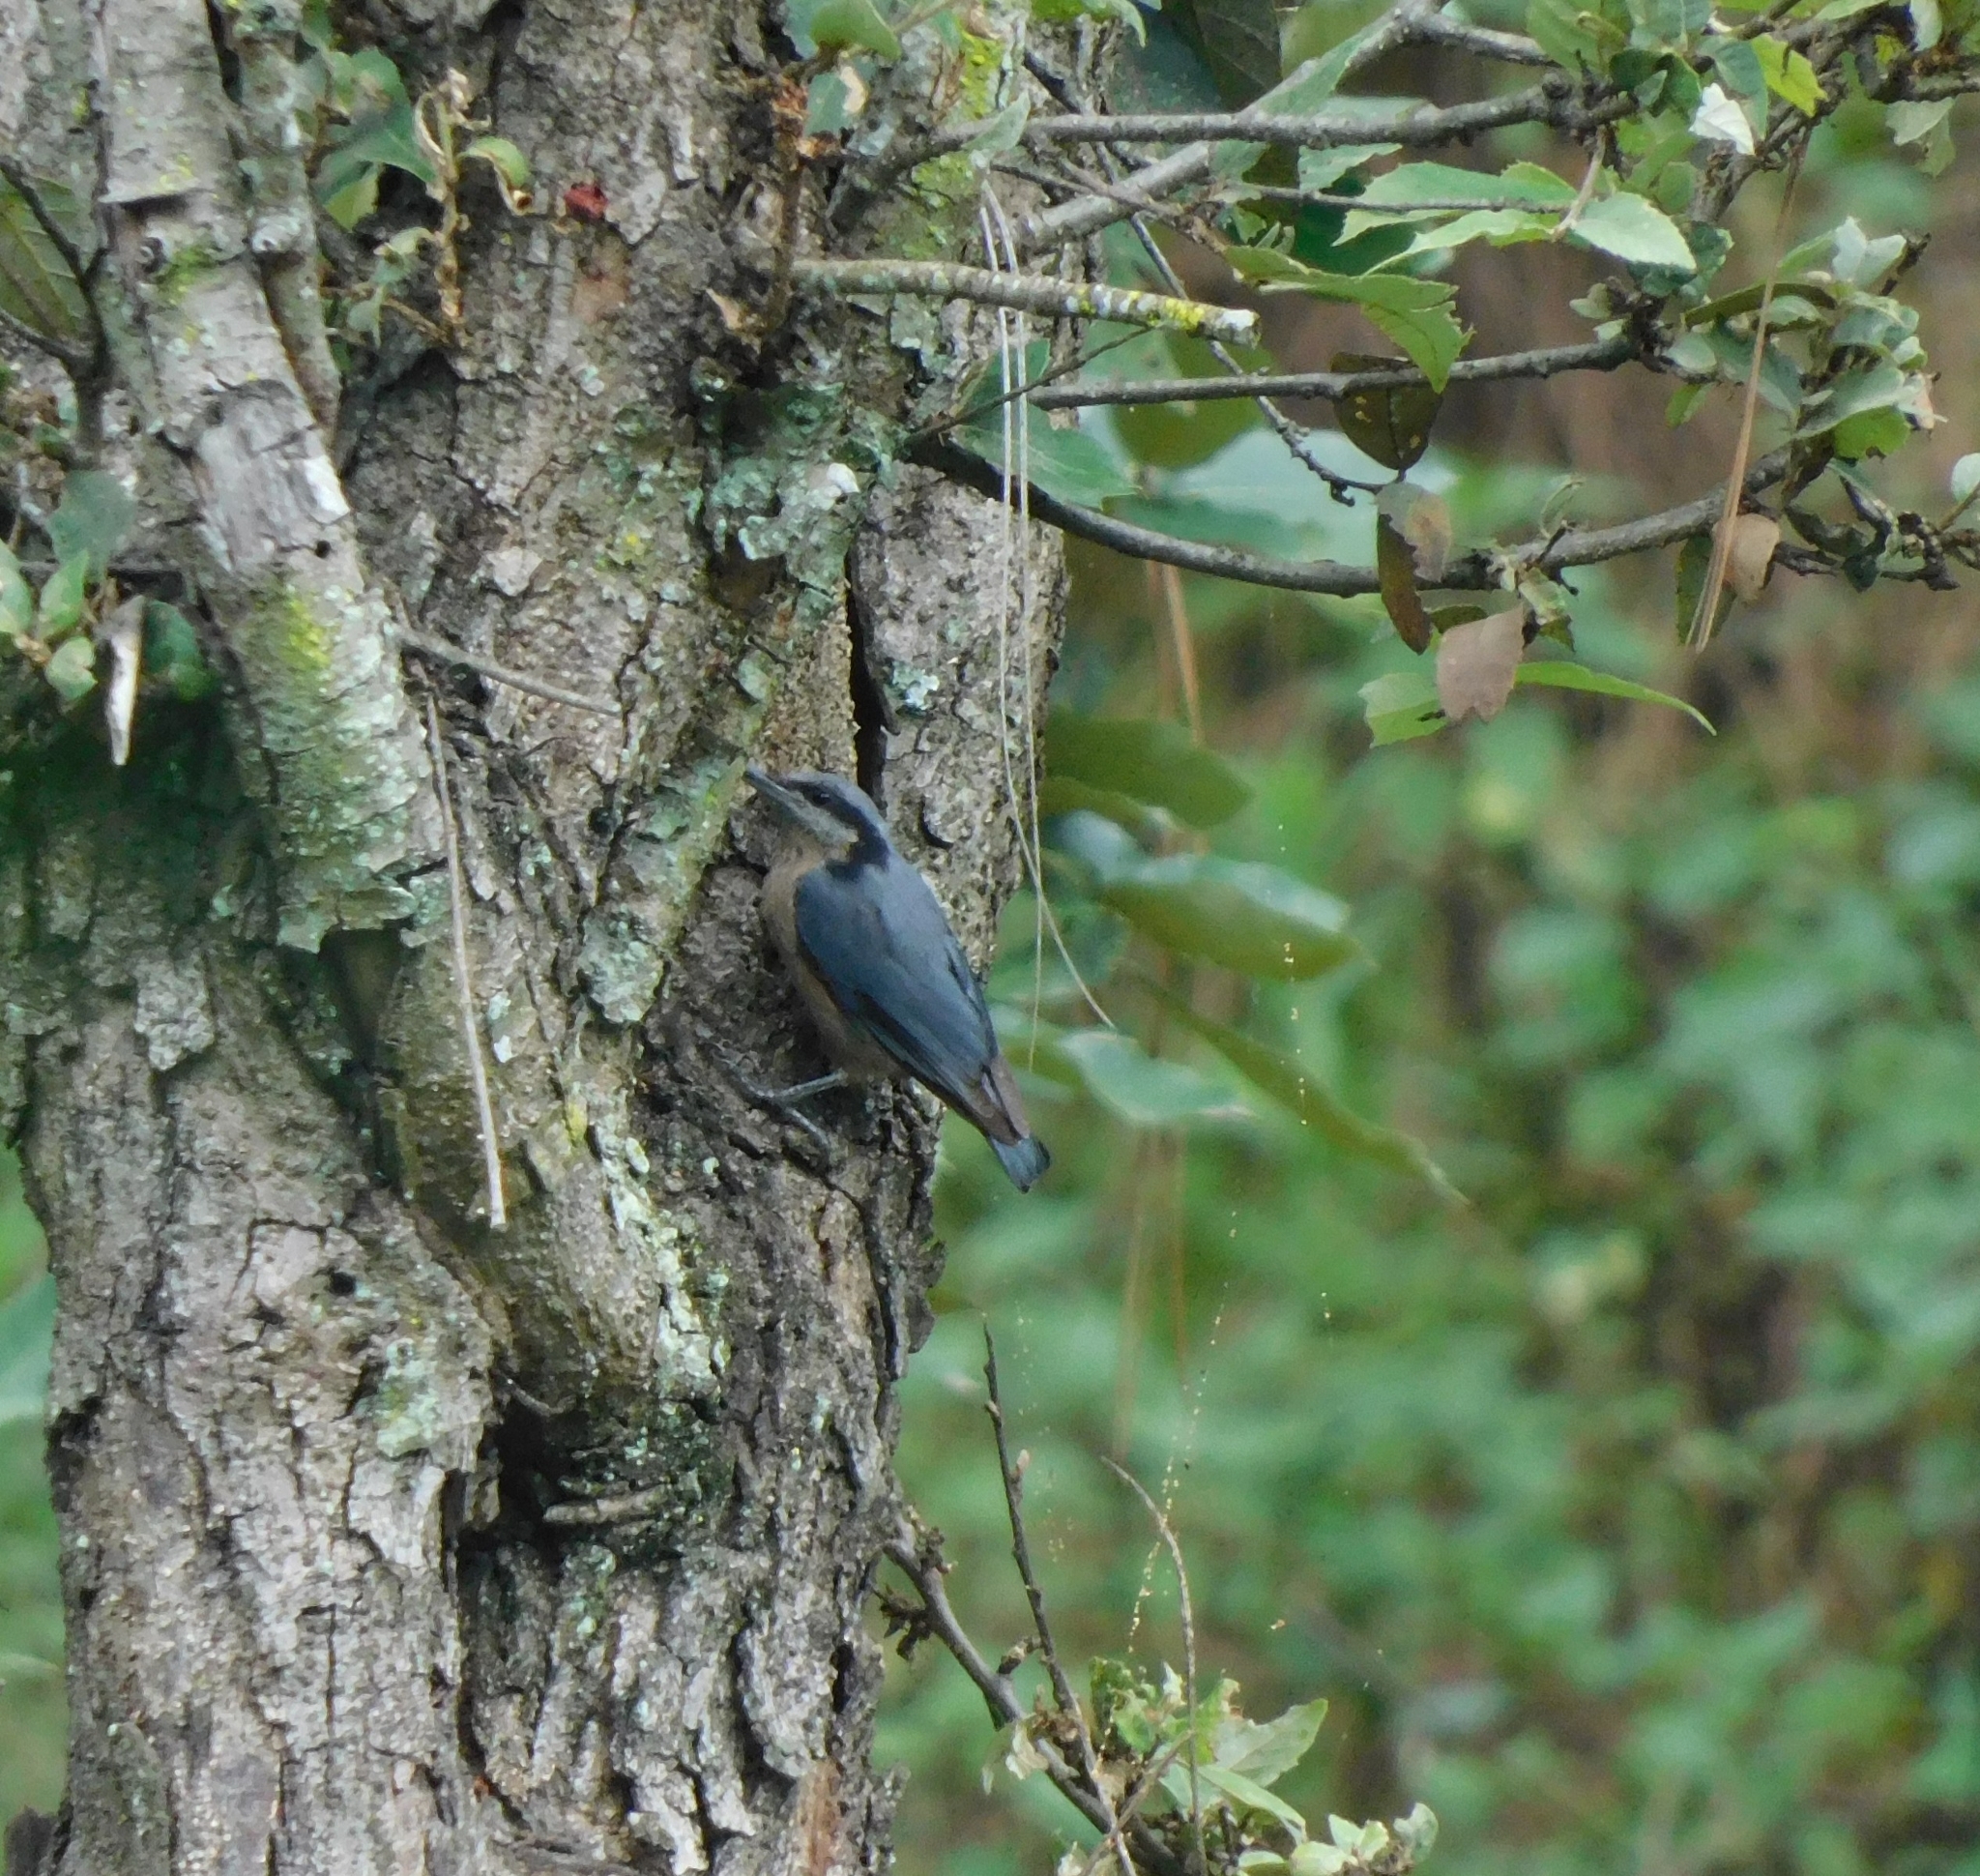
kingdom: Animalia
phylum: Chordata
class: Aves
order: Passeriformes
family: Sittidae
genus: Sitta
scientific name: Sitta cinnamoventris
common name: Chestnut-bellied nuthatch
